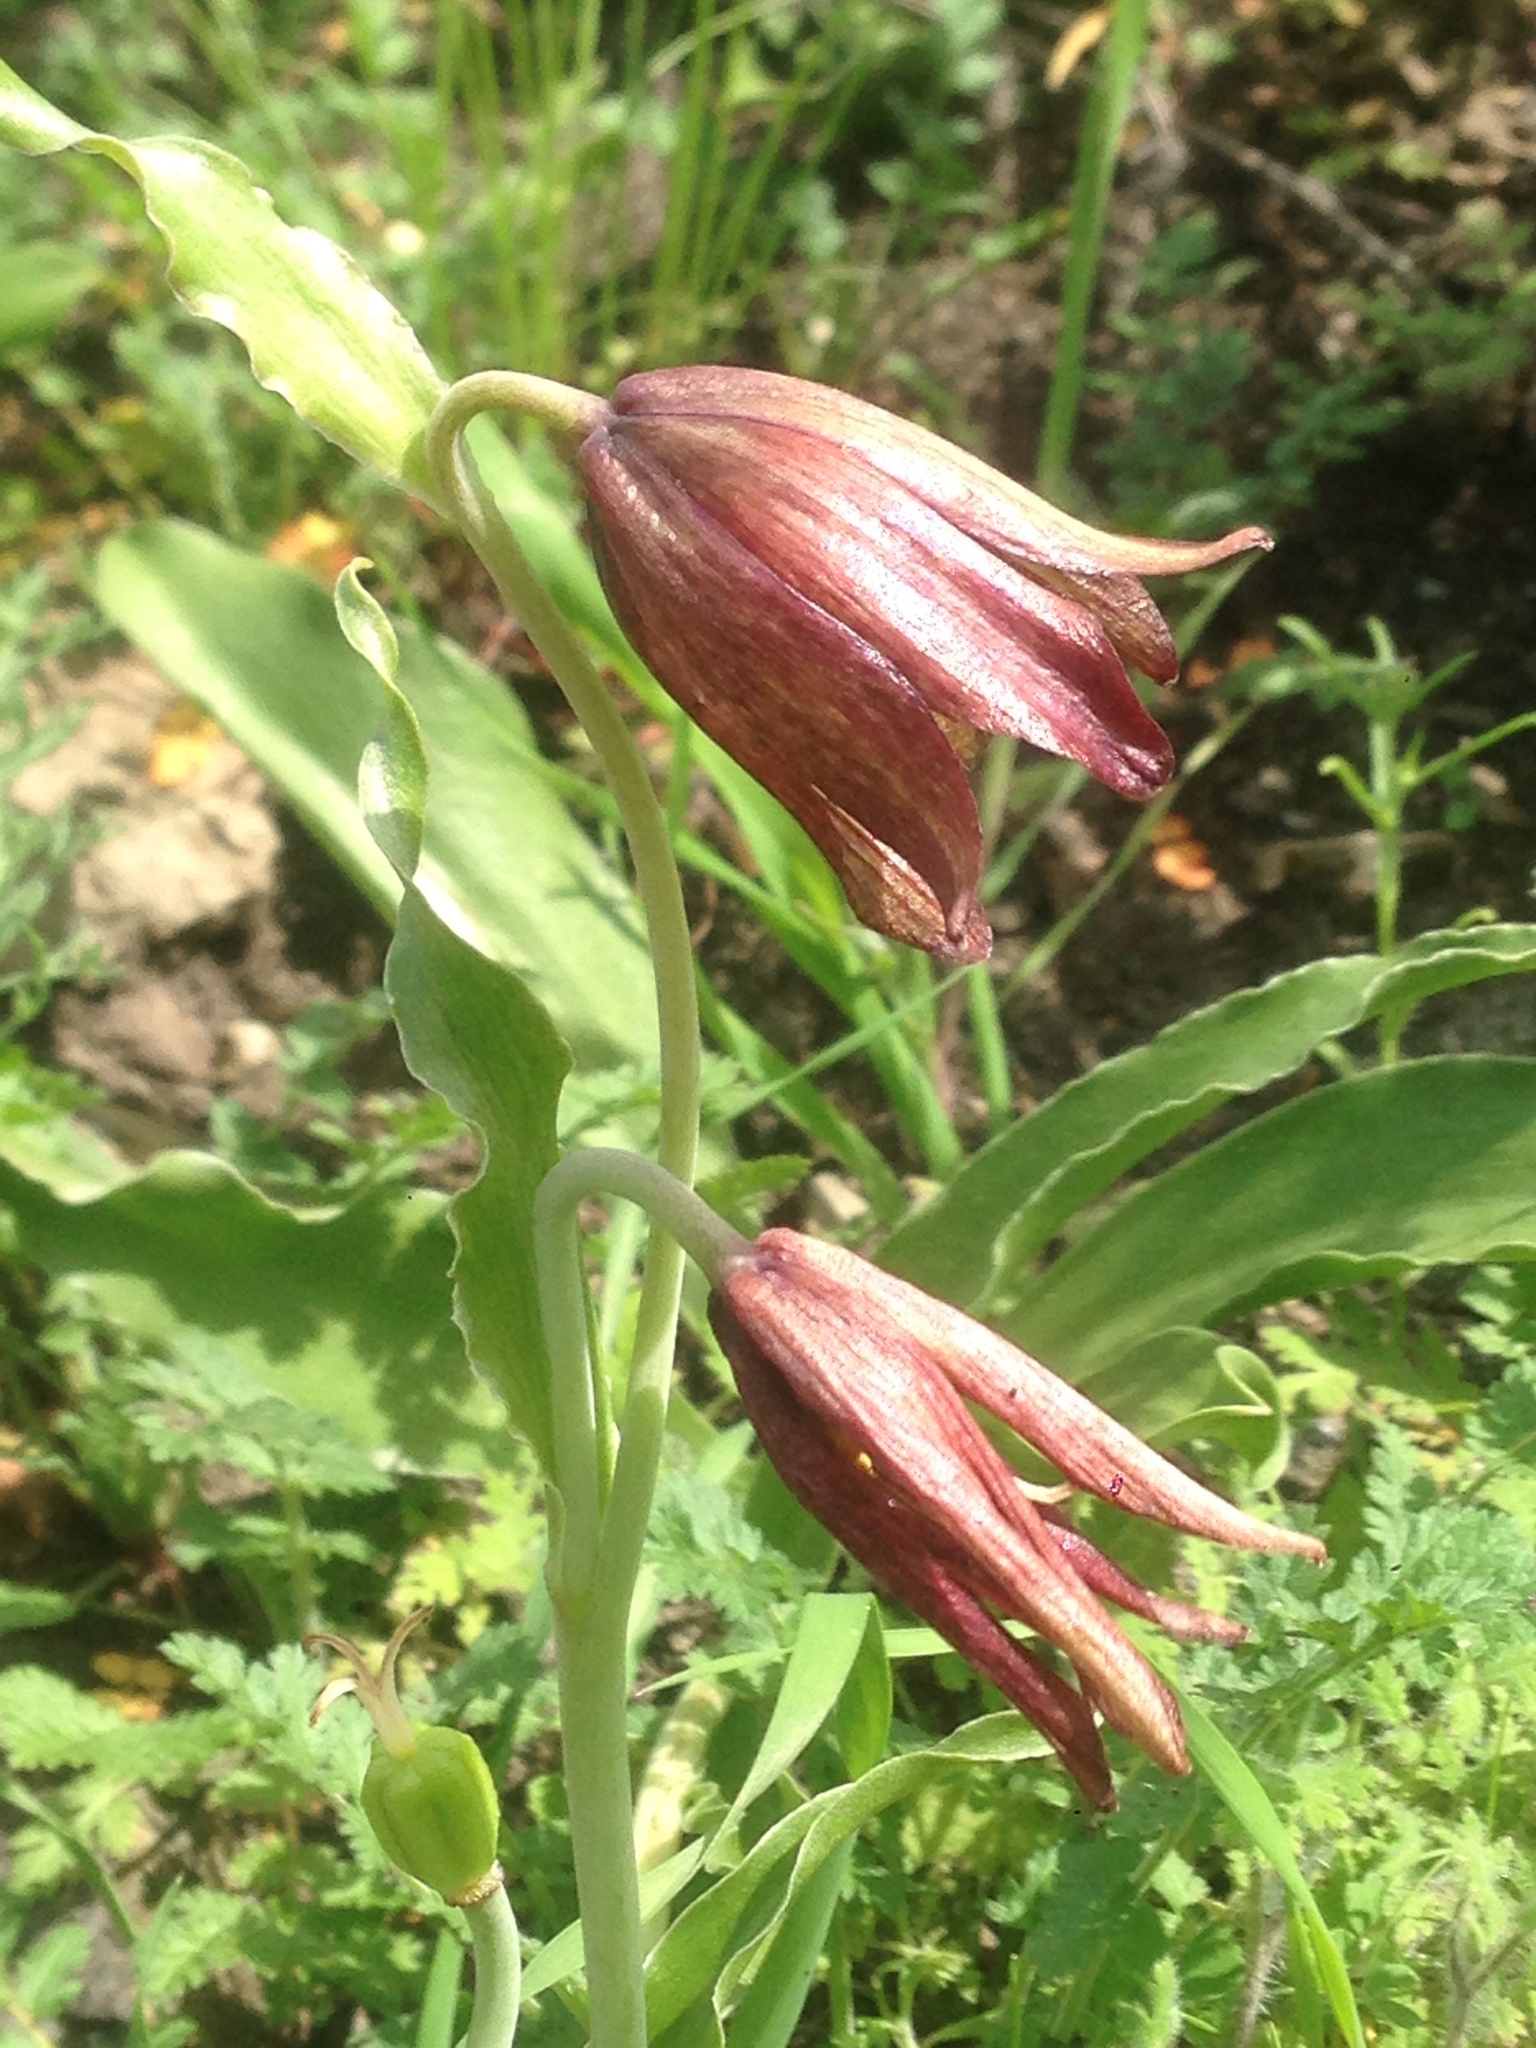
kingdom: Plantae
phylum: Tracheophyta
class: Liliopsida
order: Liliales
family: Liliaceae
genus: Fritillaria
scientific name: Fritillaria biflora
